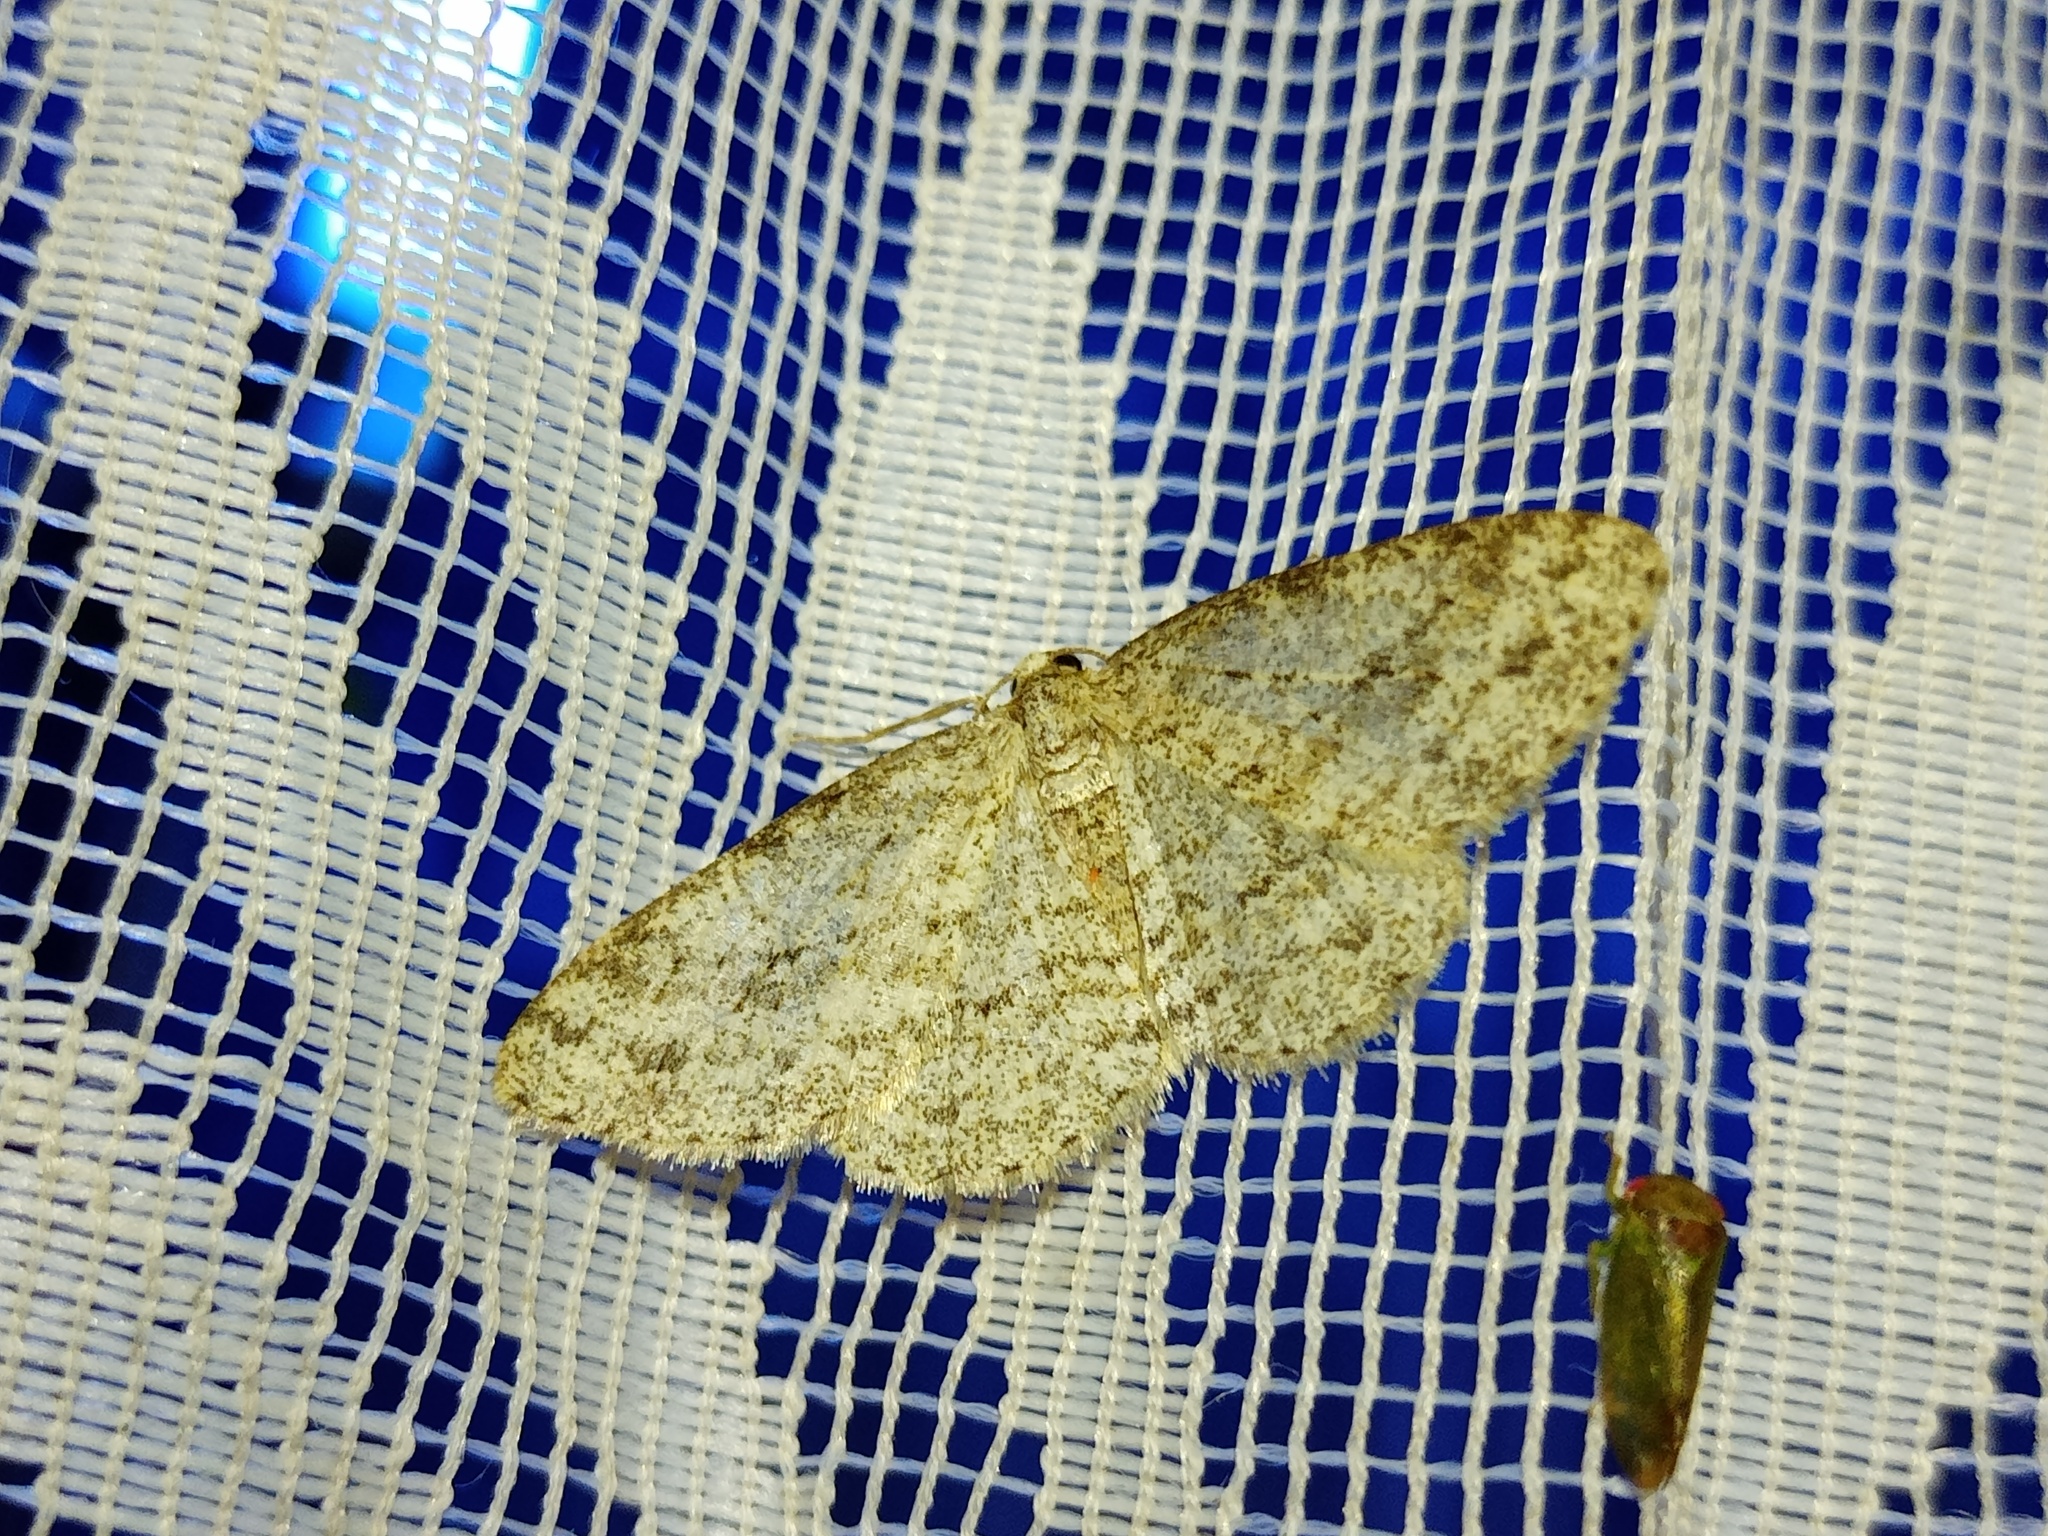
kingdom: Animalia
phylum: Arthropoda
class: Insecta
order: Lepidoptera
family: Geometridae
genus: Ectropis
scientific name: Ectropis crepuscularia
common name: Engrailed
